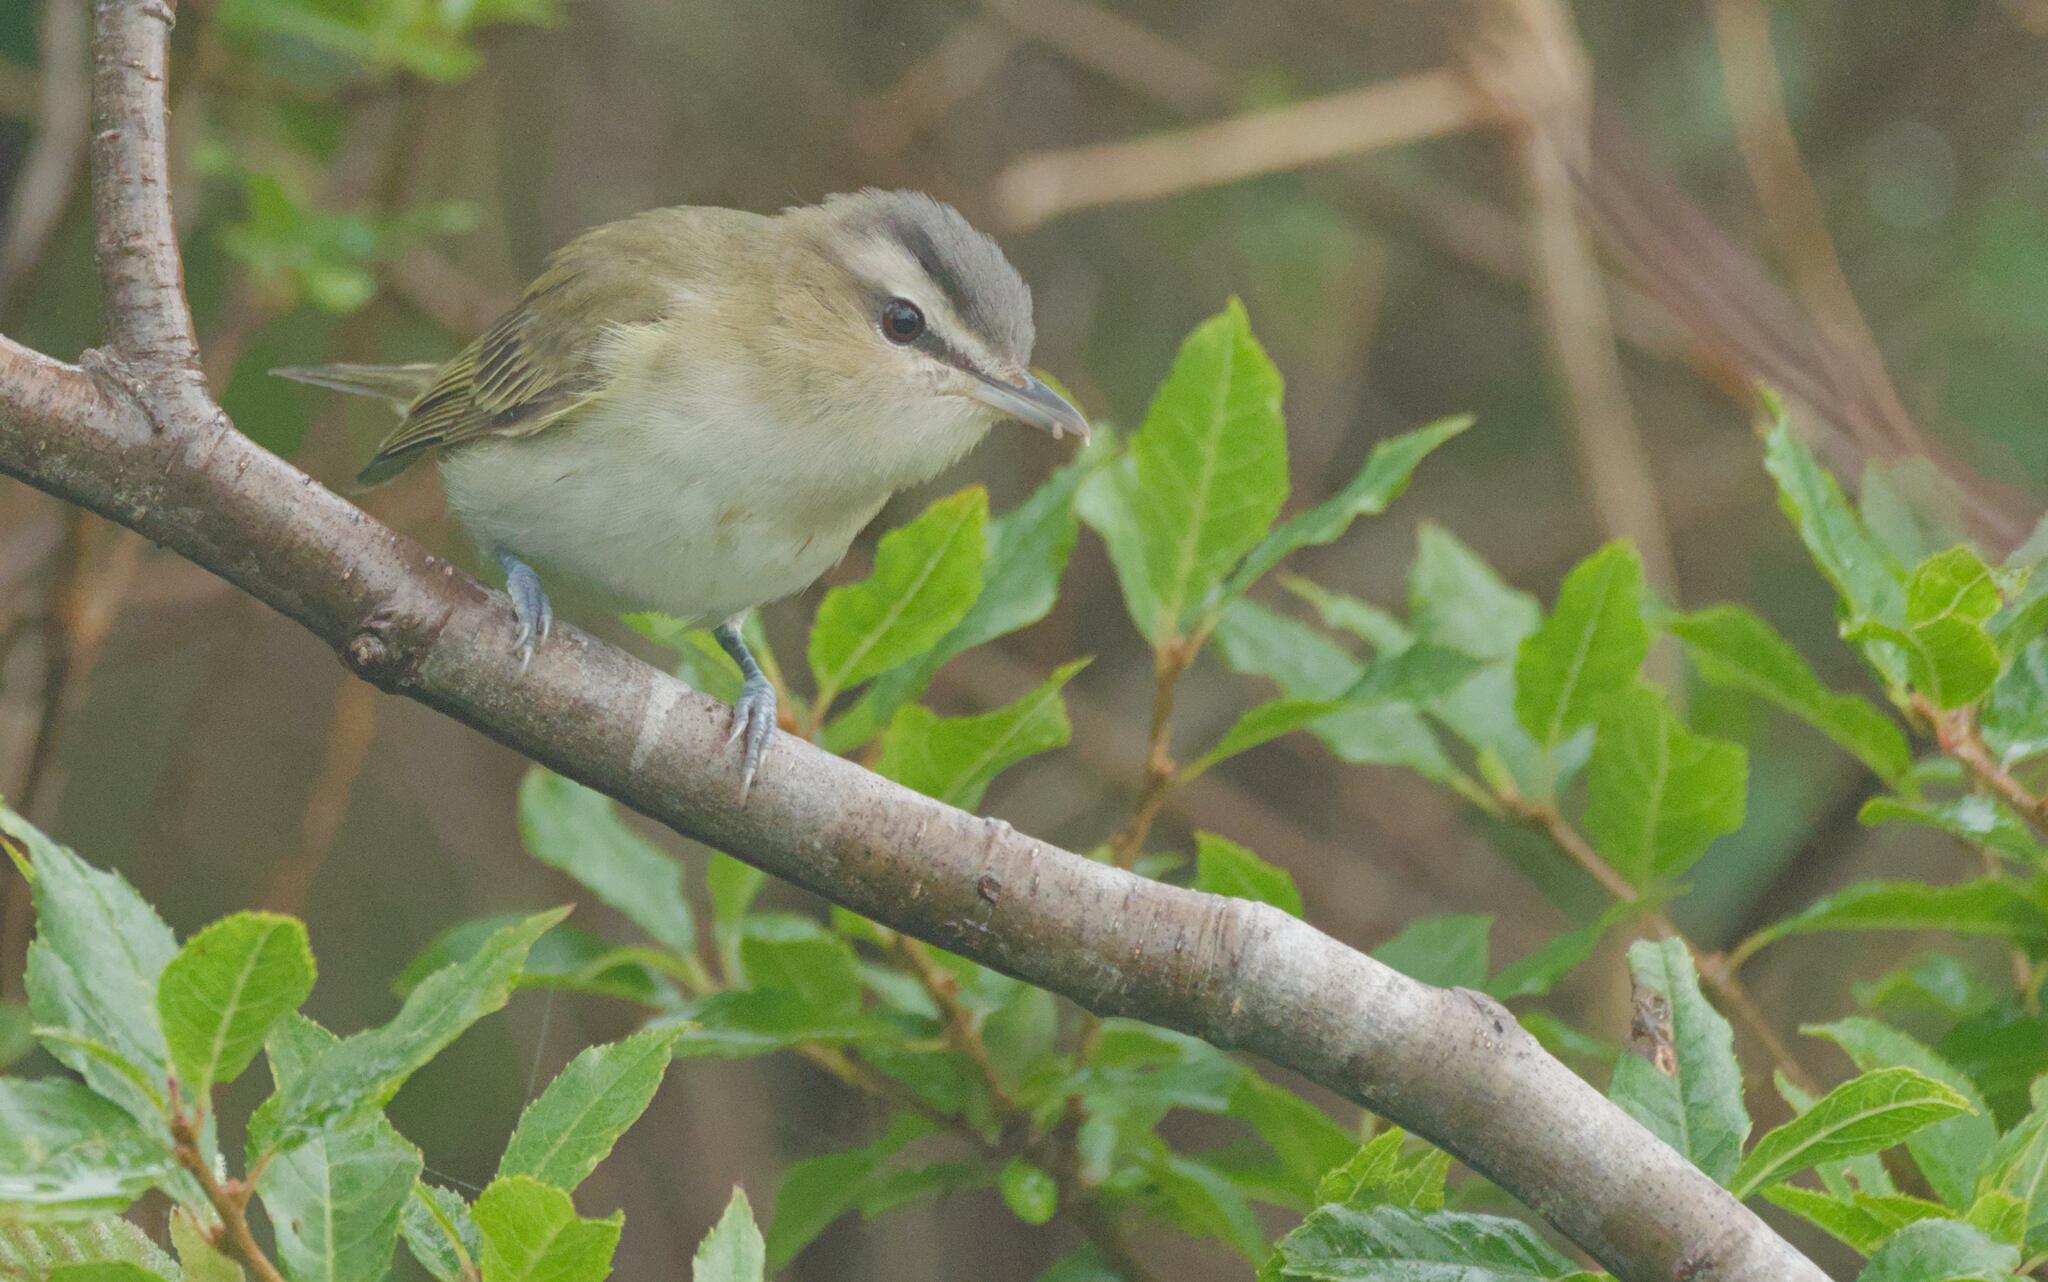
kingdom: Animalia
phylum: Chordata
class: Aves
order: Passeriformes
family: Vireonidae
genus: Vireo
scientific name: Vireo olivaceus
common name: Red-eyed vireo
